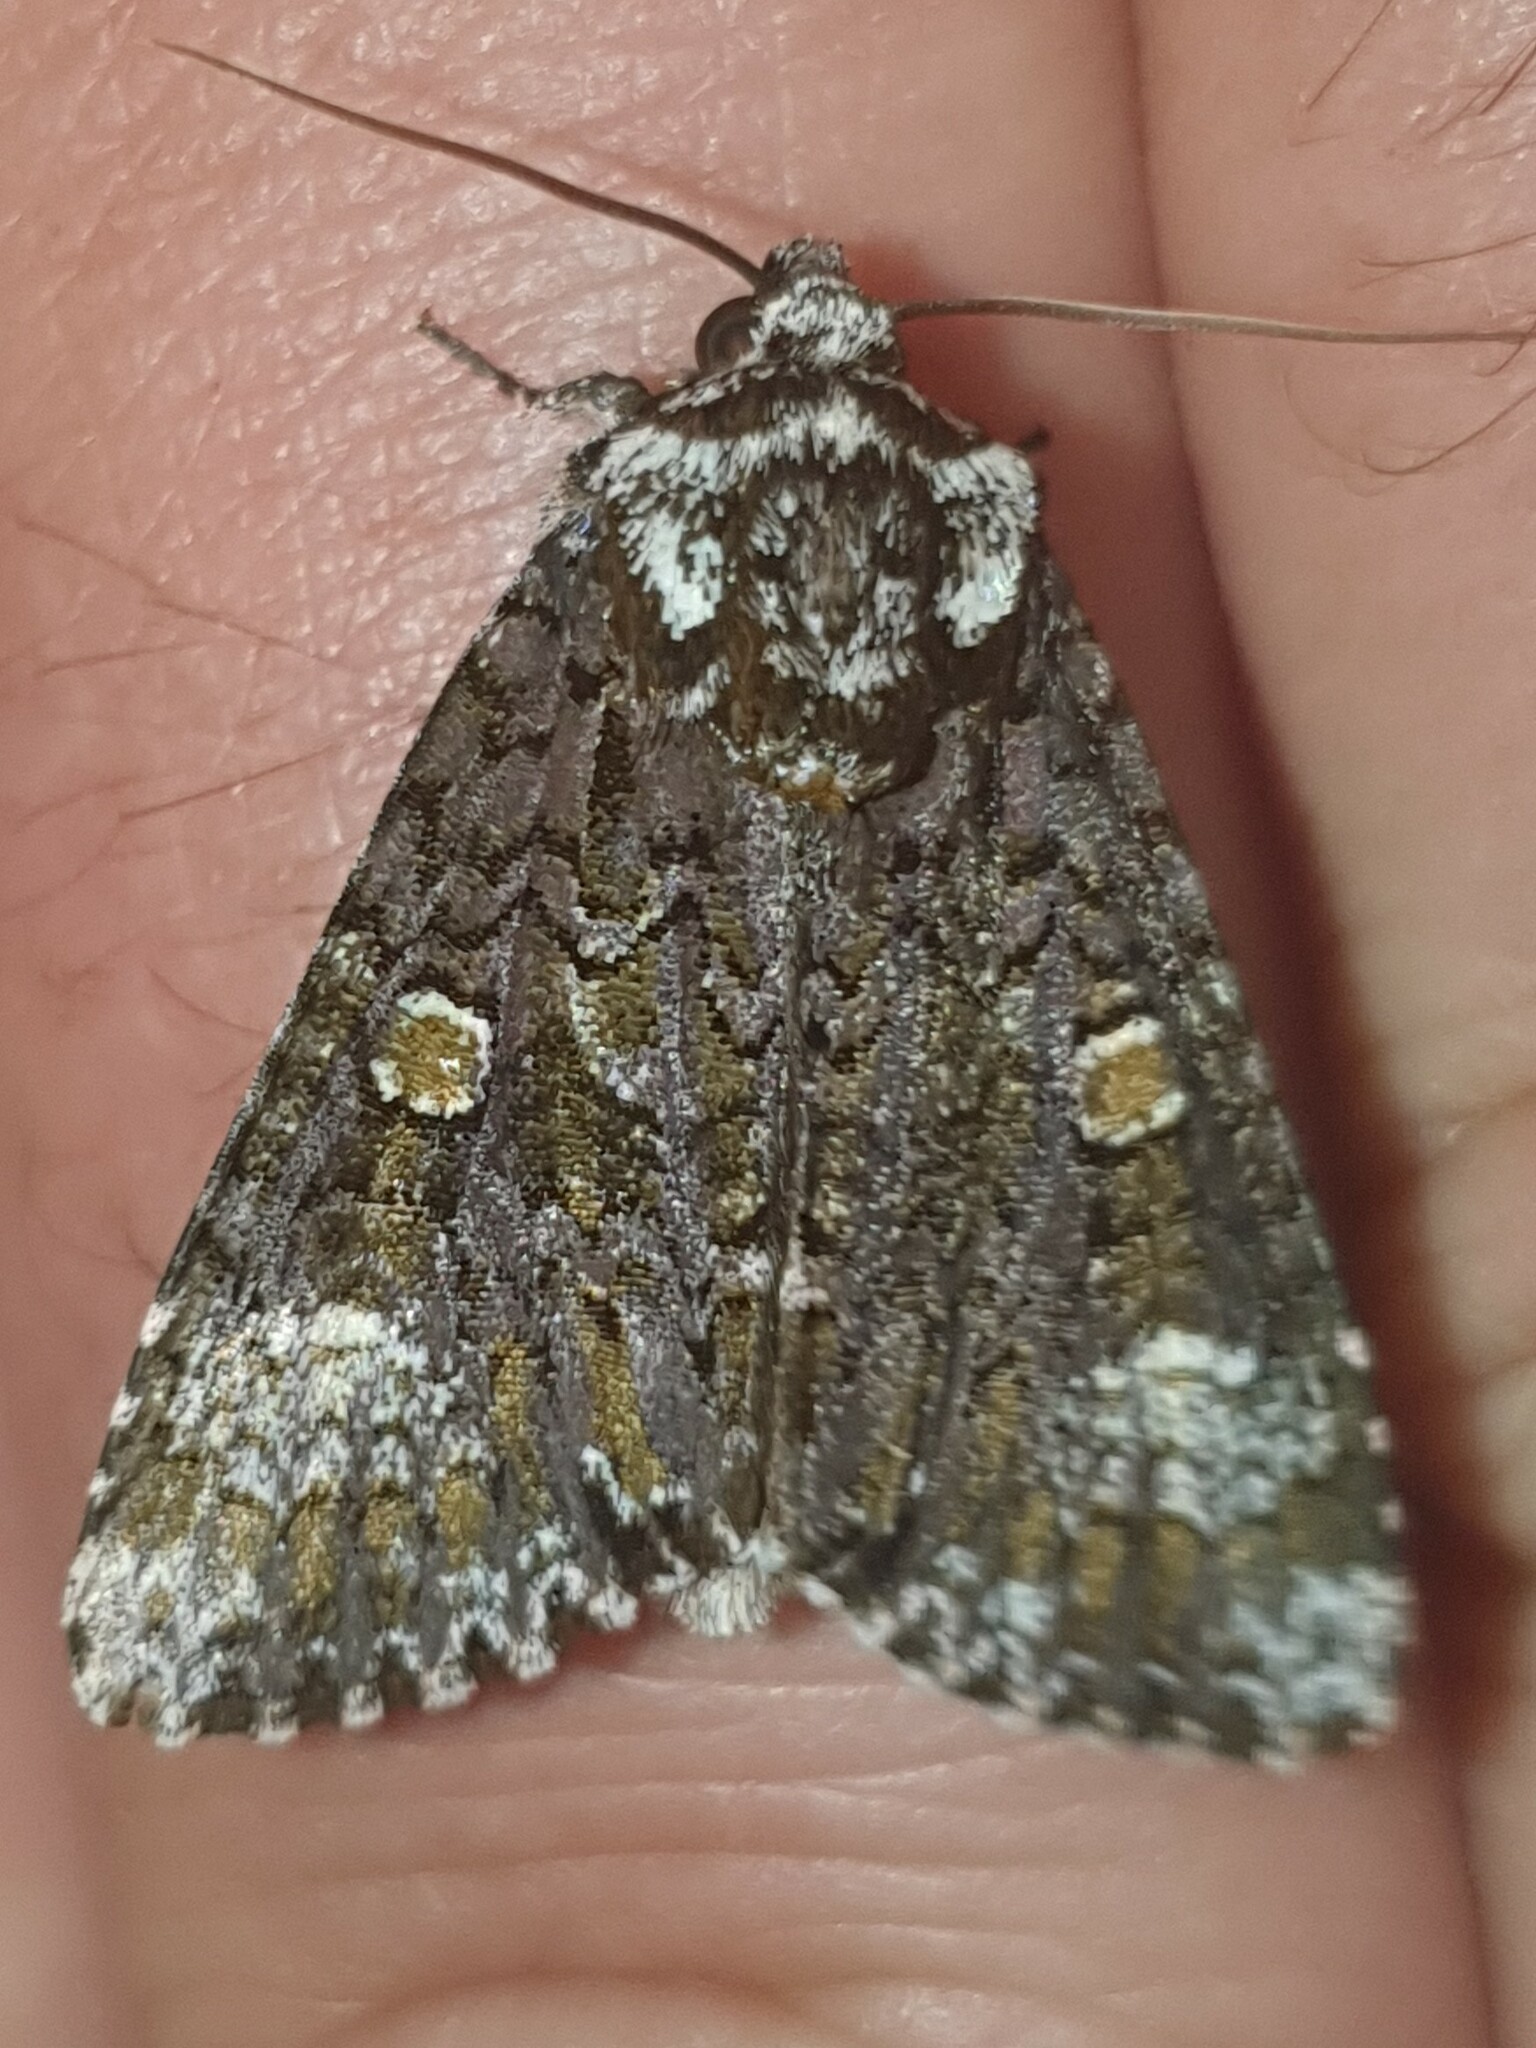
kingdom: Animalia
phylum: Arthropoda
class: Insecta
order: Lepidoptera
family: Noctuidae
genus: Craniophora
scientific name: Craniophora ligustri
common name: Coronet
